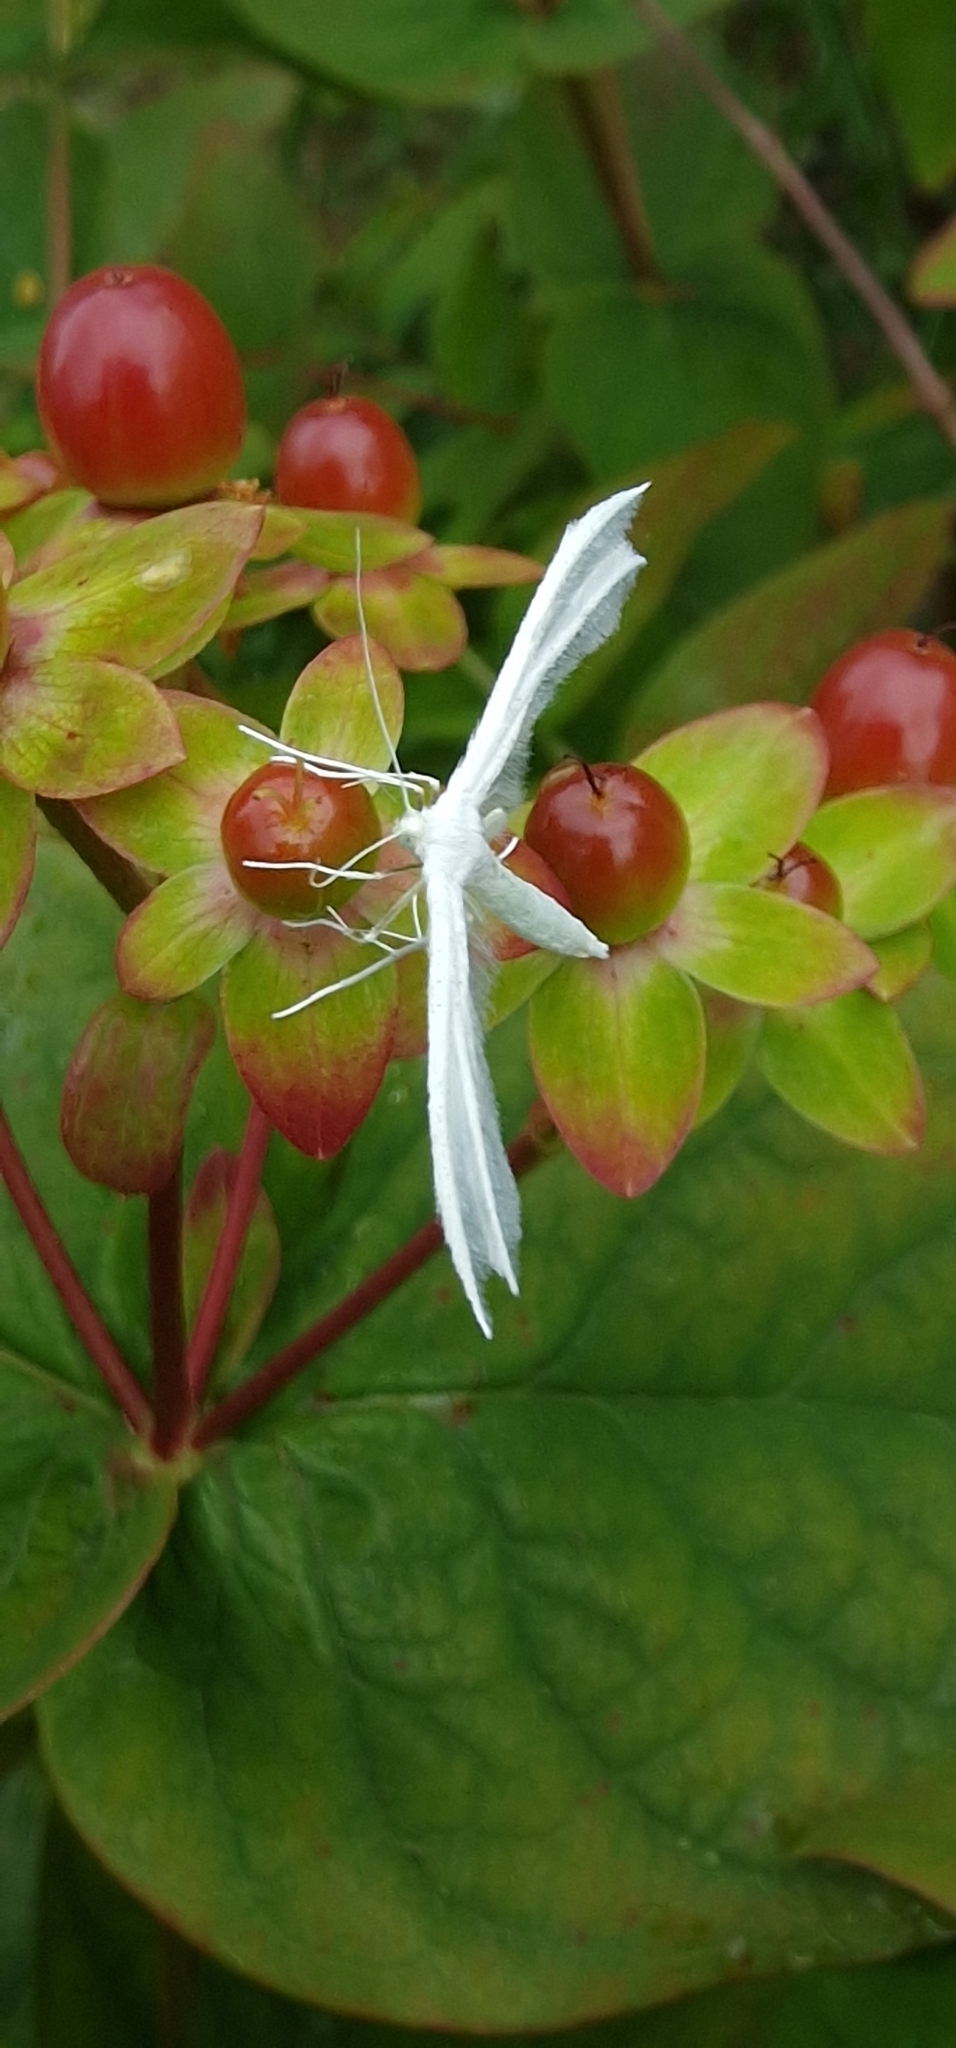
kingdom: Animalia
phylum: Arthropoda
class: Insecta
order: Lepidoptera
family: Pterophoridae
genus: Pterophorus
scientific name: Pterophorus pentadactyla
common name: White plume moth
